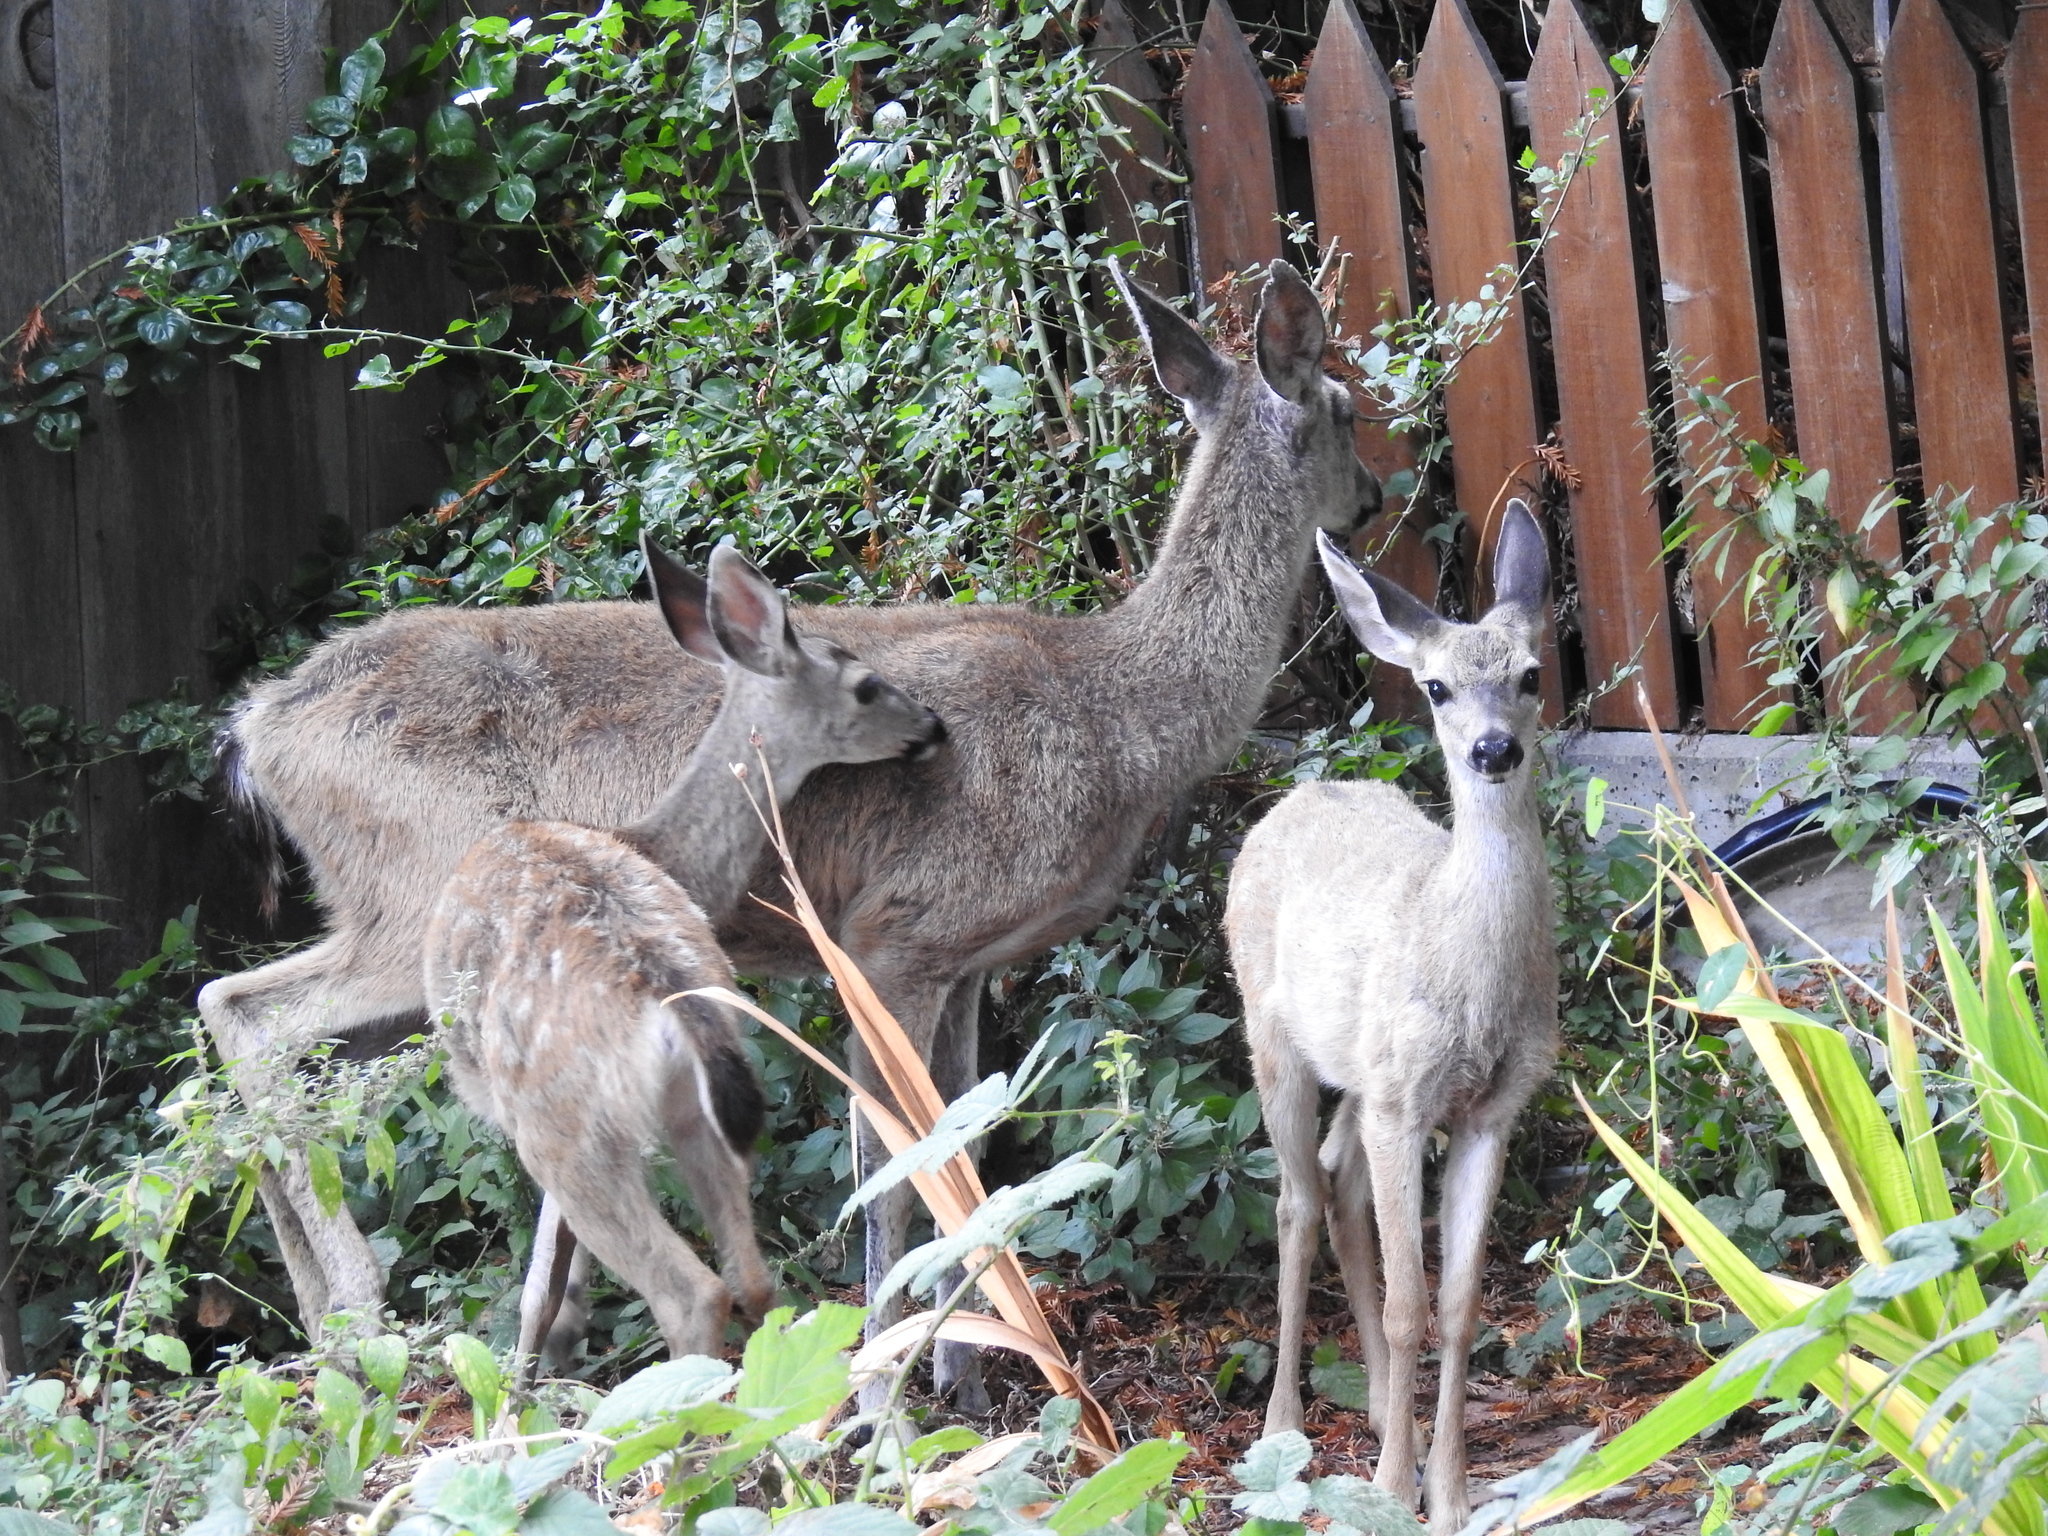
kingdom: Animalia
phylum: Chordata
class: Mammalia
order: Artiodactyla
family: Cervidae
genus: Odocoileus
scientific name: Odocoileus hemionus
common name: Mule deer
